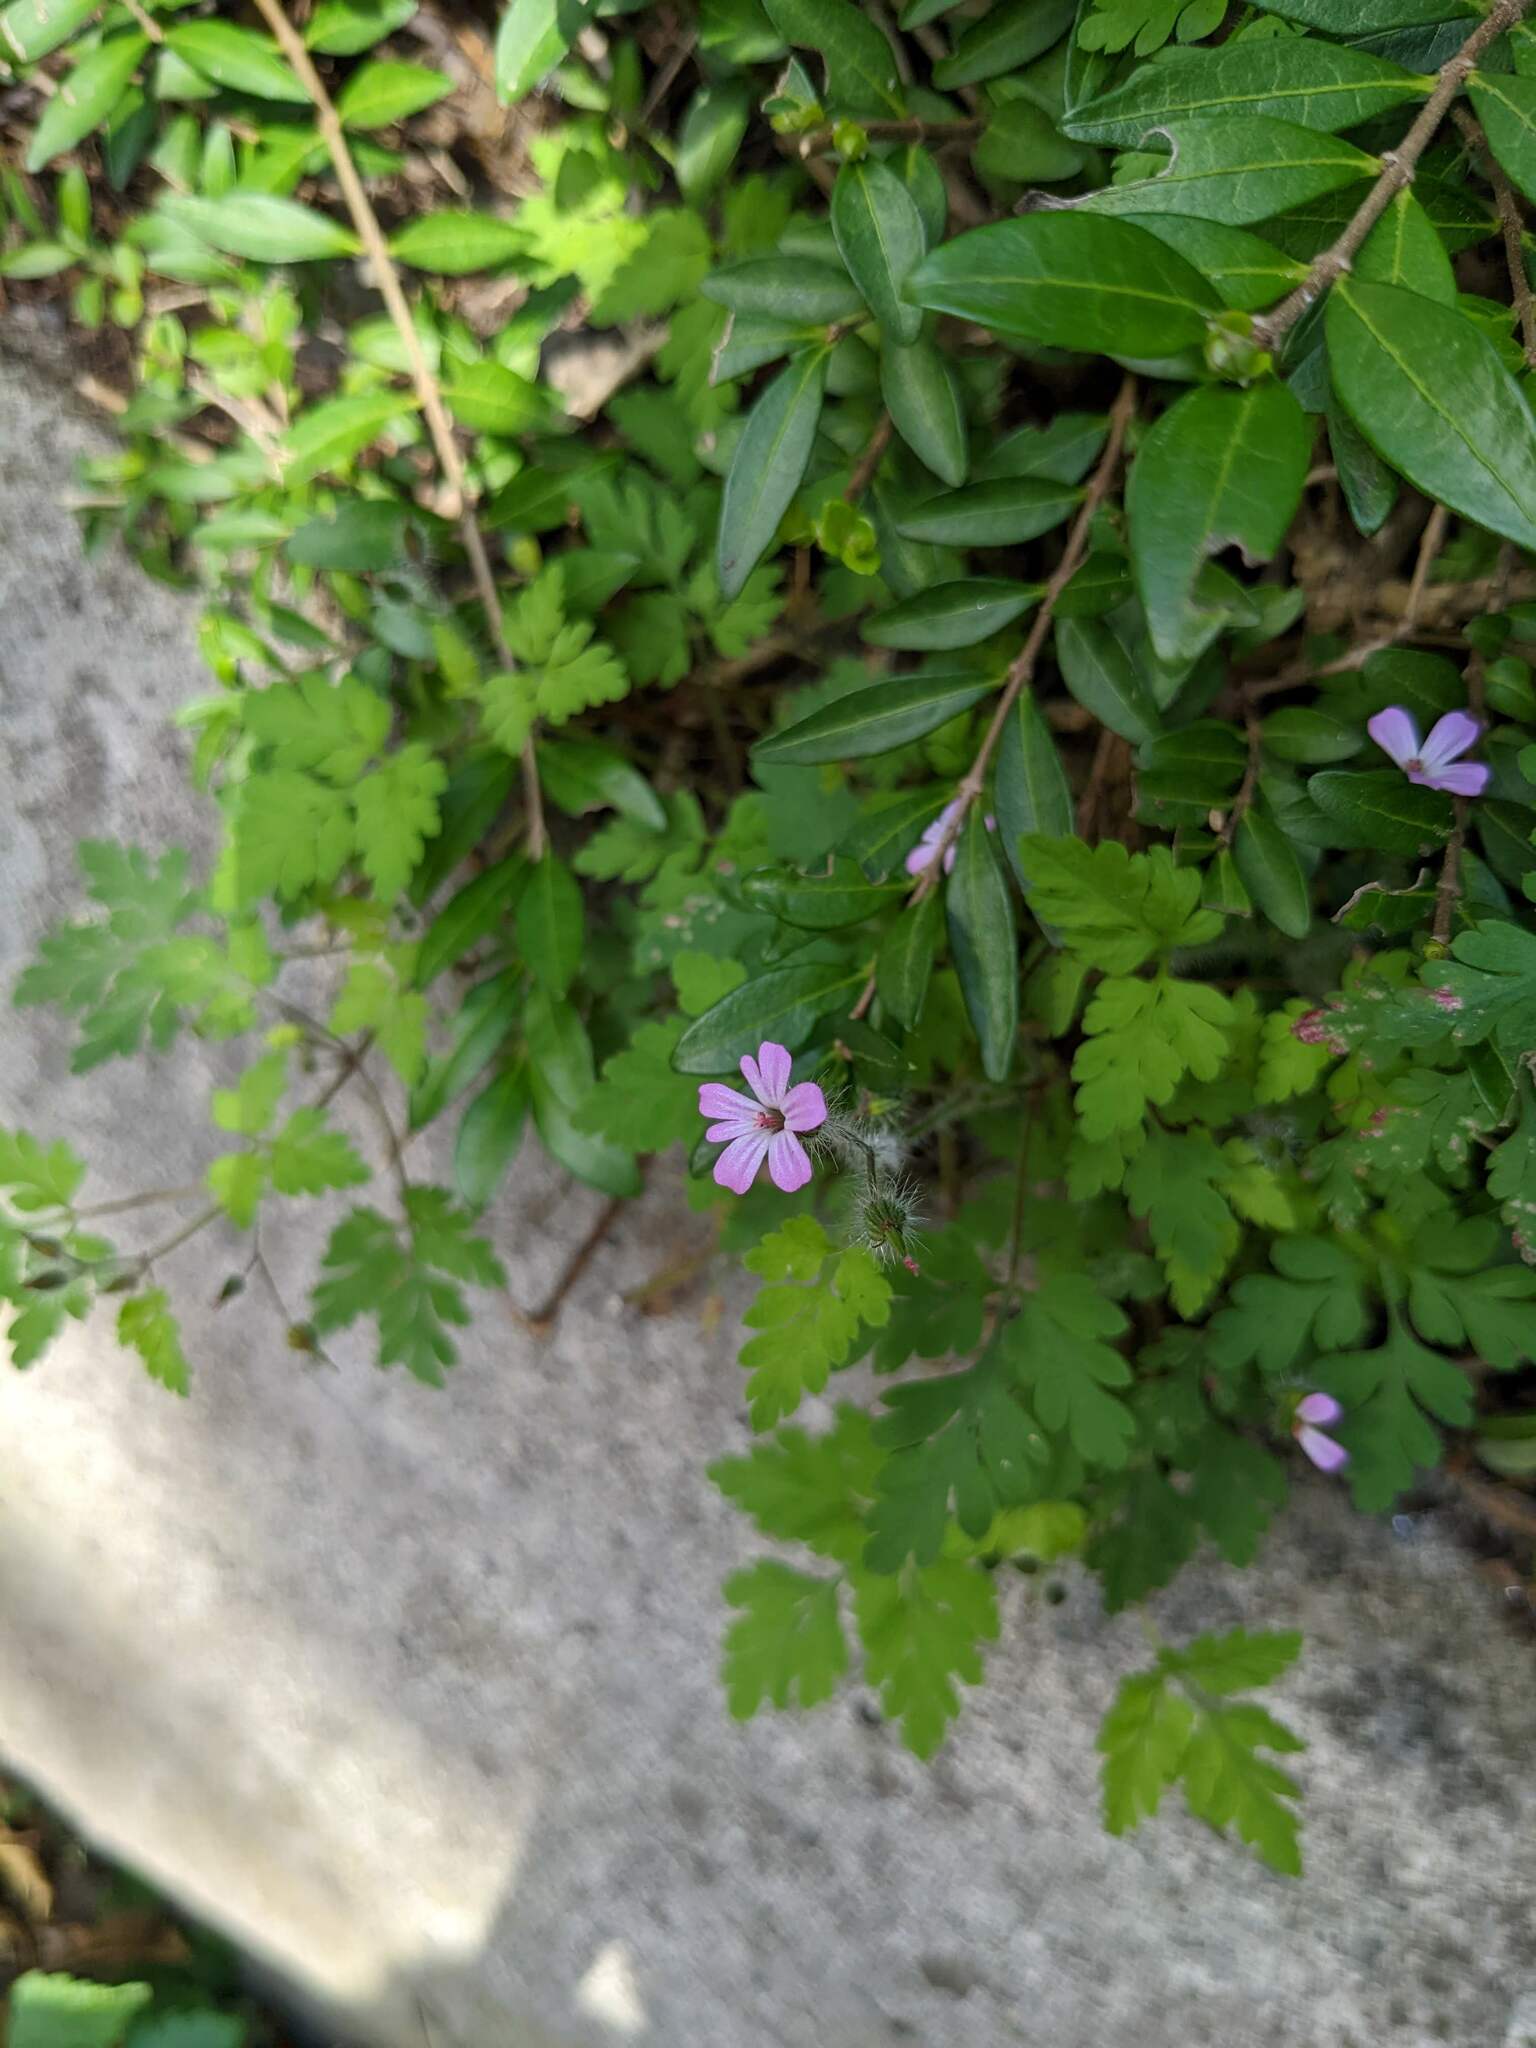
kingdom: Plantae
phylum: Tracheophyta
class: Magnoliopsida
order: Geraniales
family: Geraniaceae
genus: Geranium
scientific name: Geranium robertianum
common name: Herb-robert
